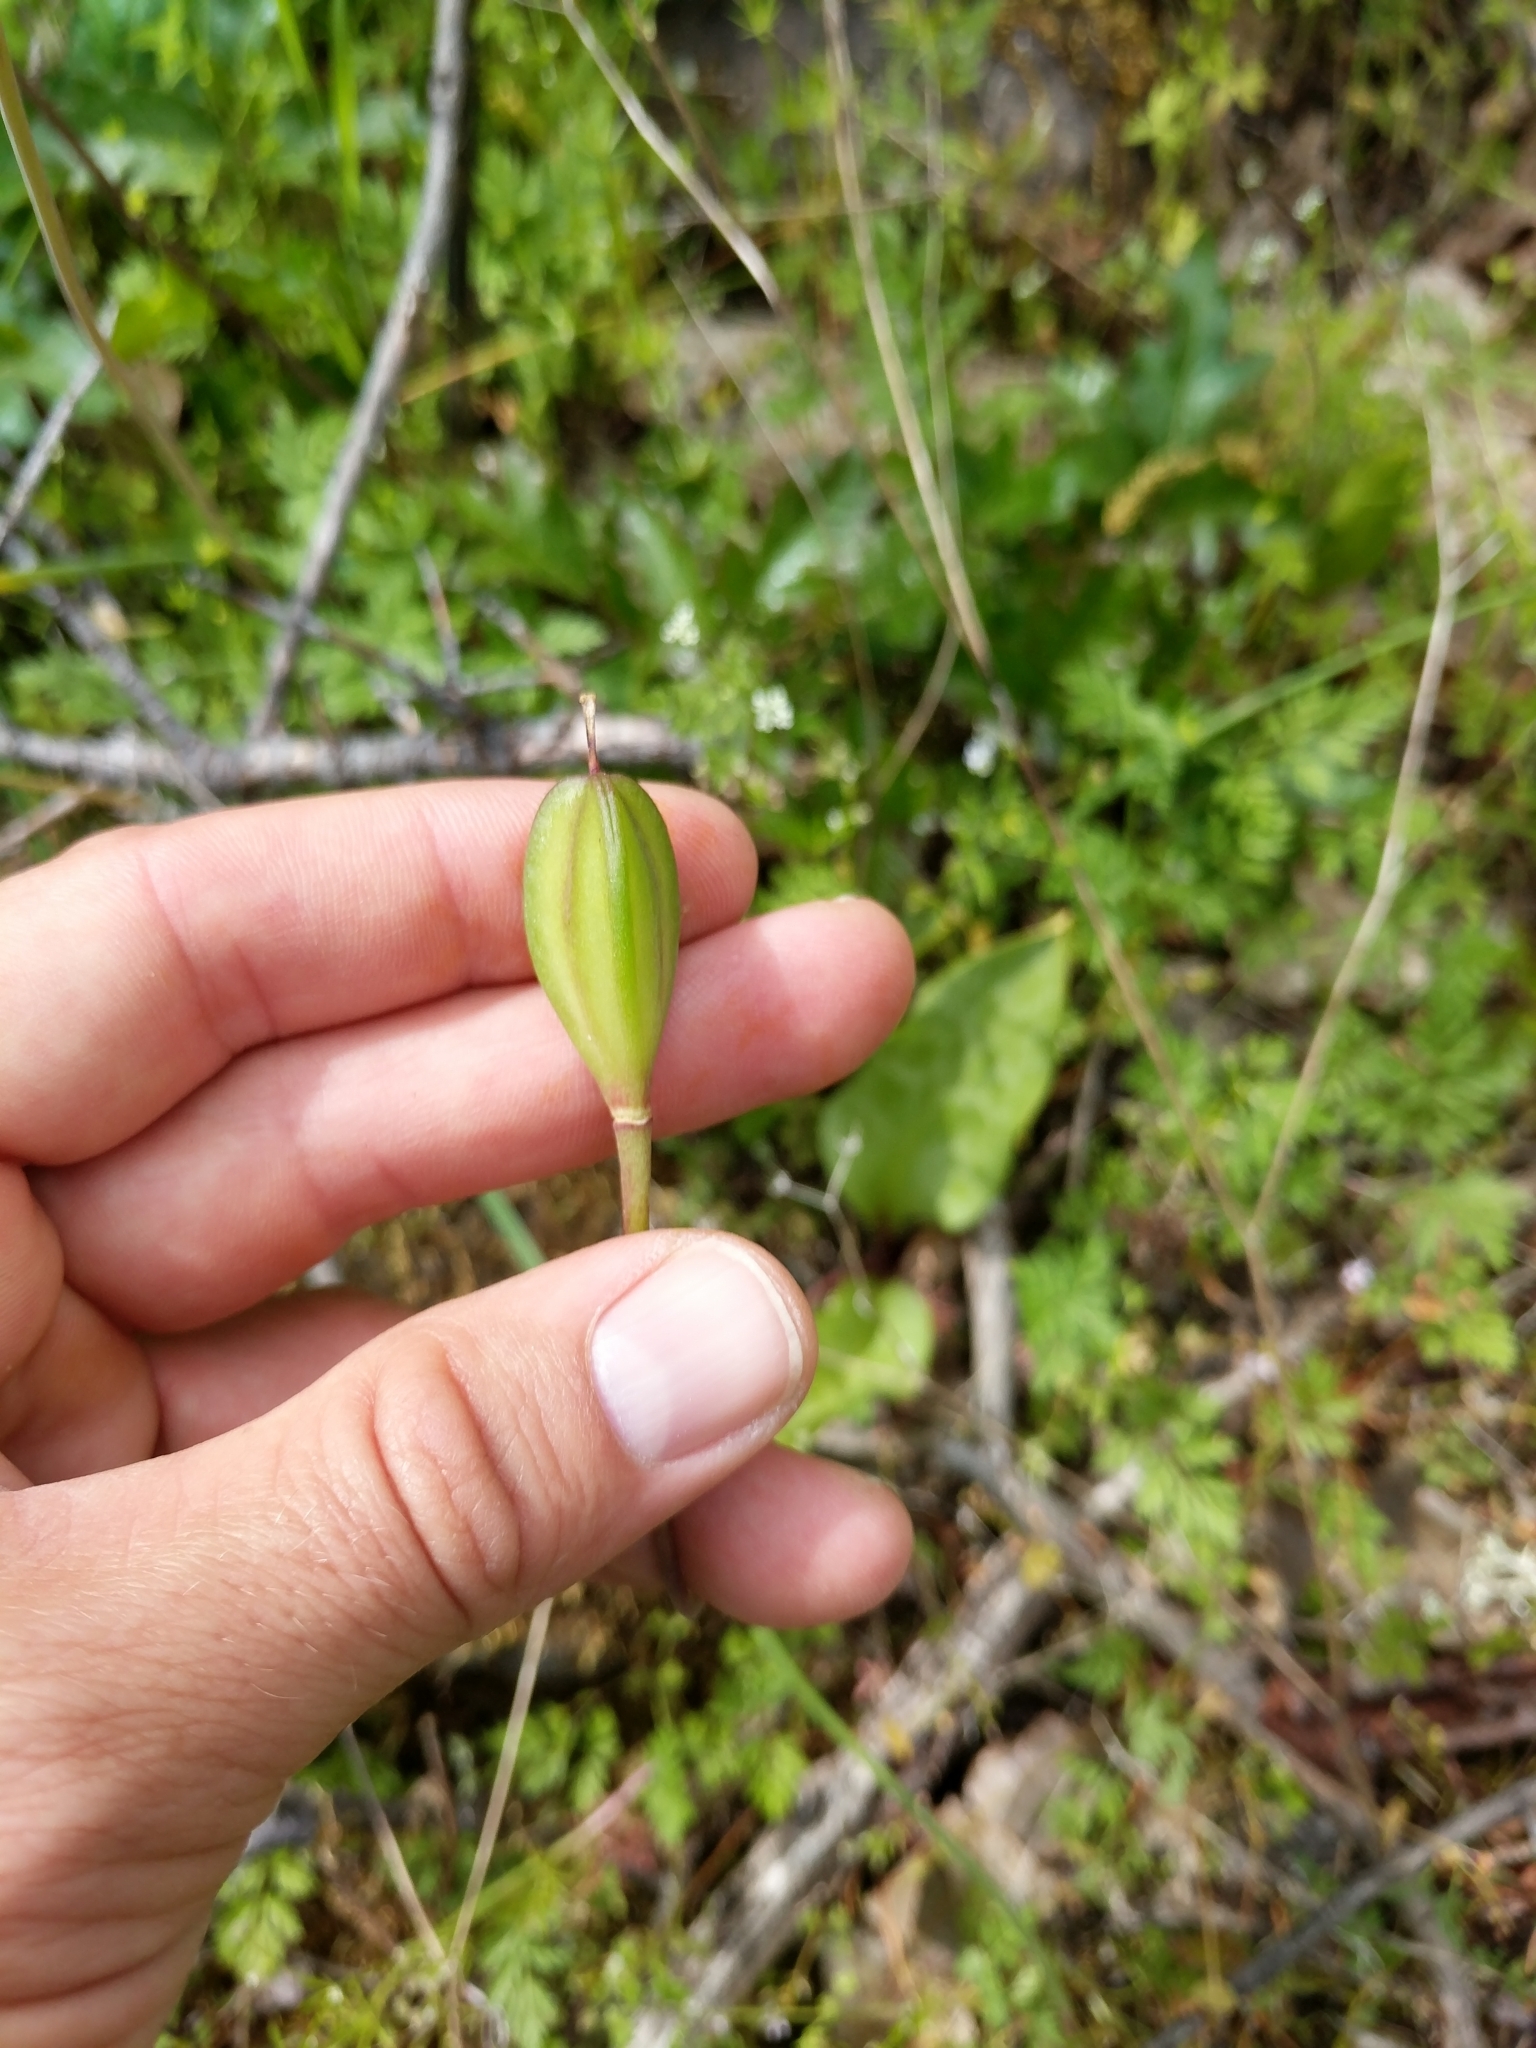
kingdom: Plantae
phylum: Tracheophyta
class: Liliopsida
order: Liliales
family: Liliaceae
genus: Erythronium
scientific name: Erythronium hendersonii
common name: Henderson's fawn-lily
